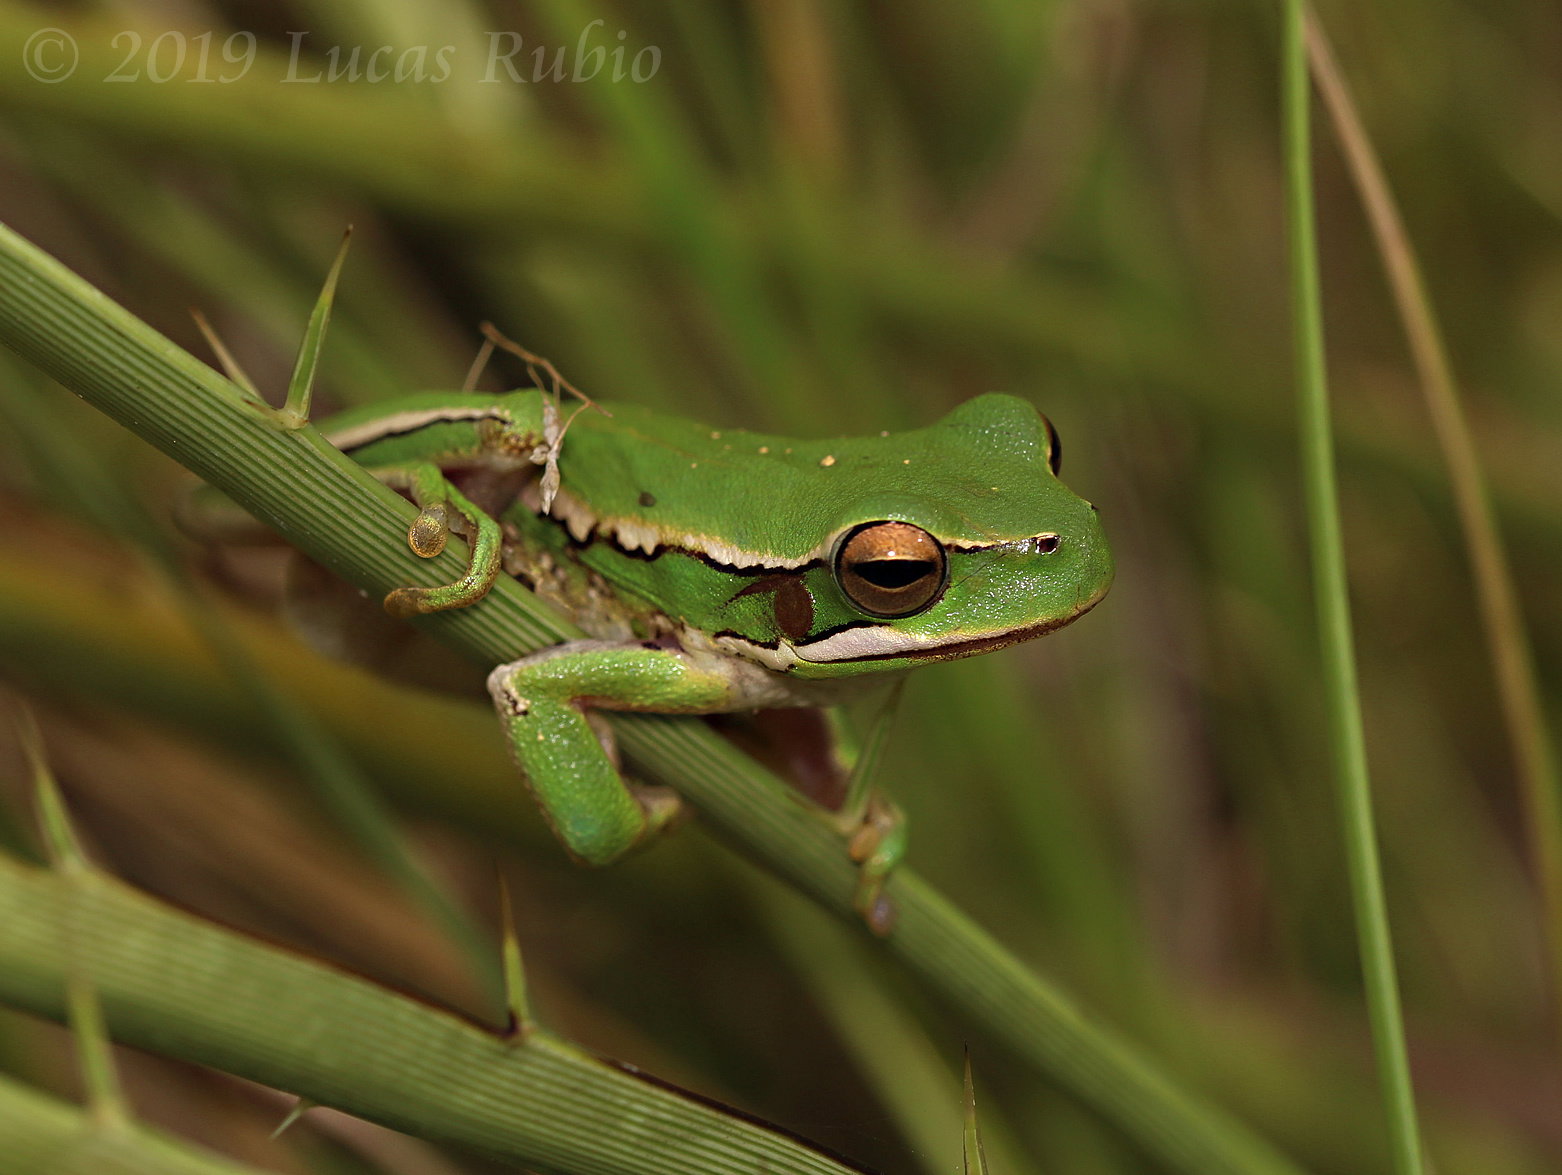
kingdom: Animalia
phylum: Chordata
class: Amphibia
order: Anura
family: Hylidae
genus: Boana
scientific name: Boana pulchella
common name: Montevideo treefrog
